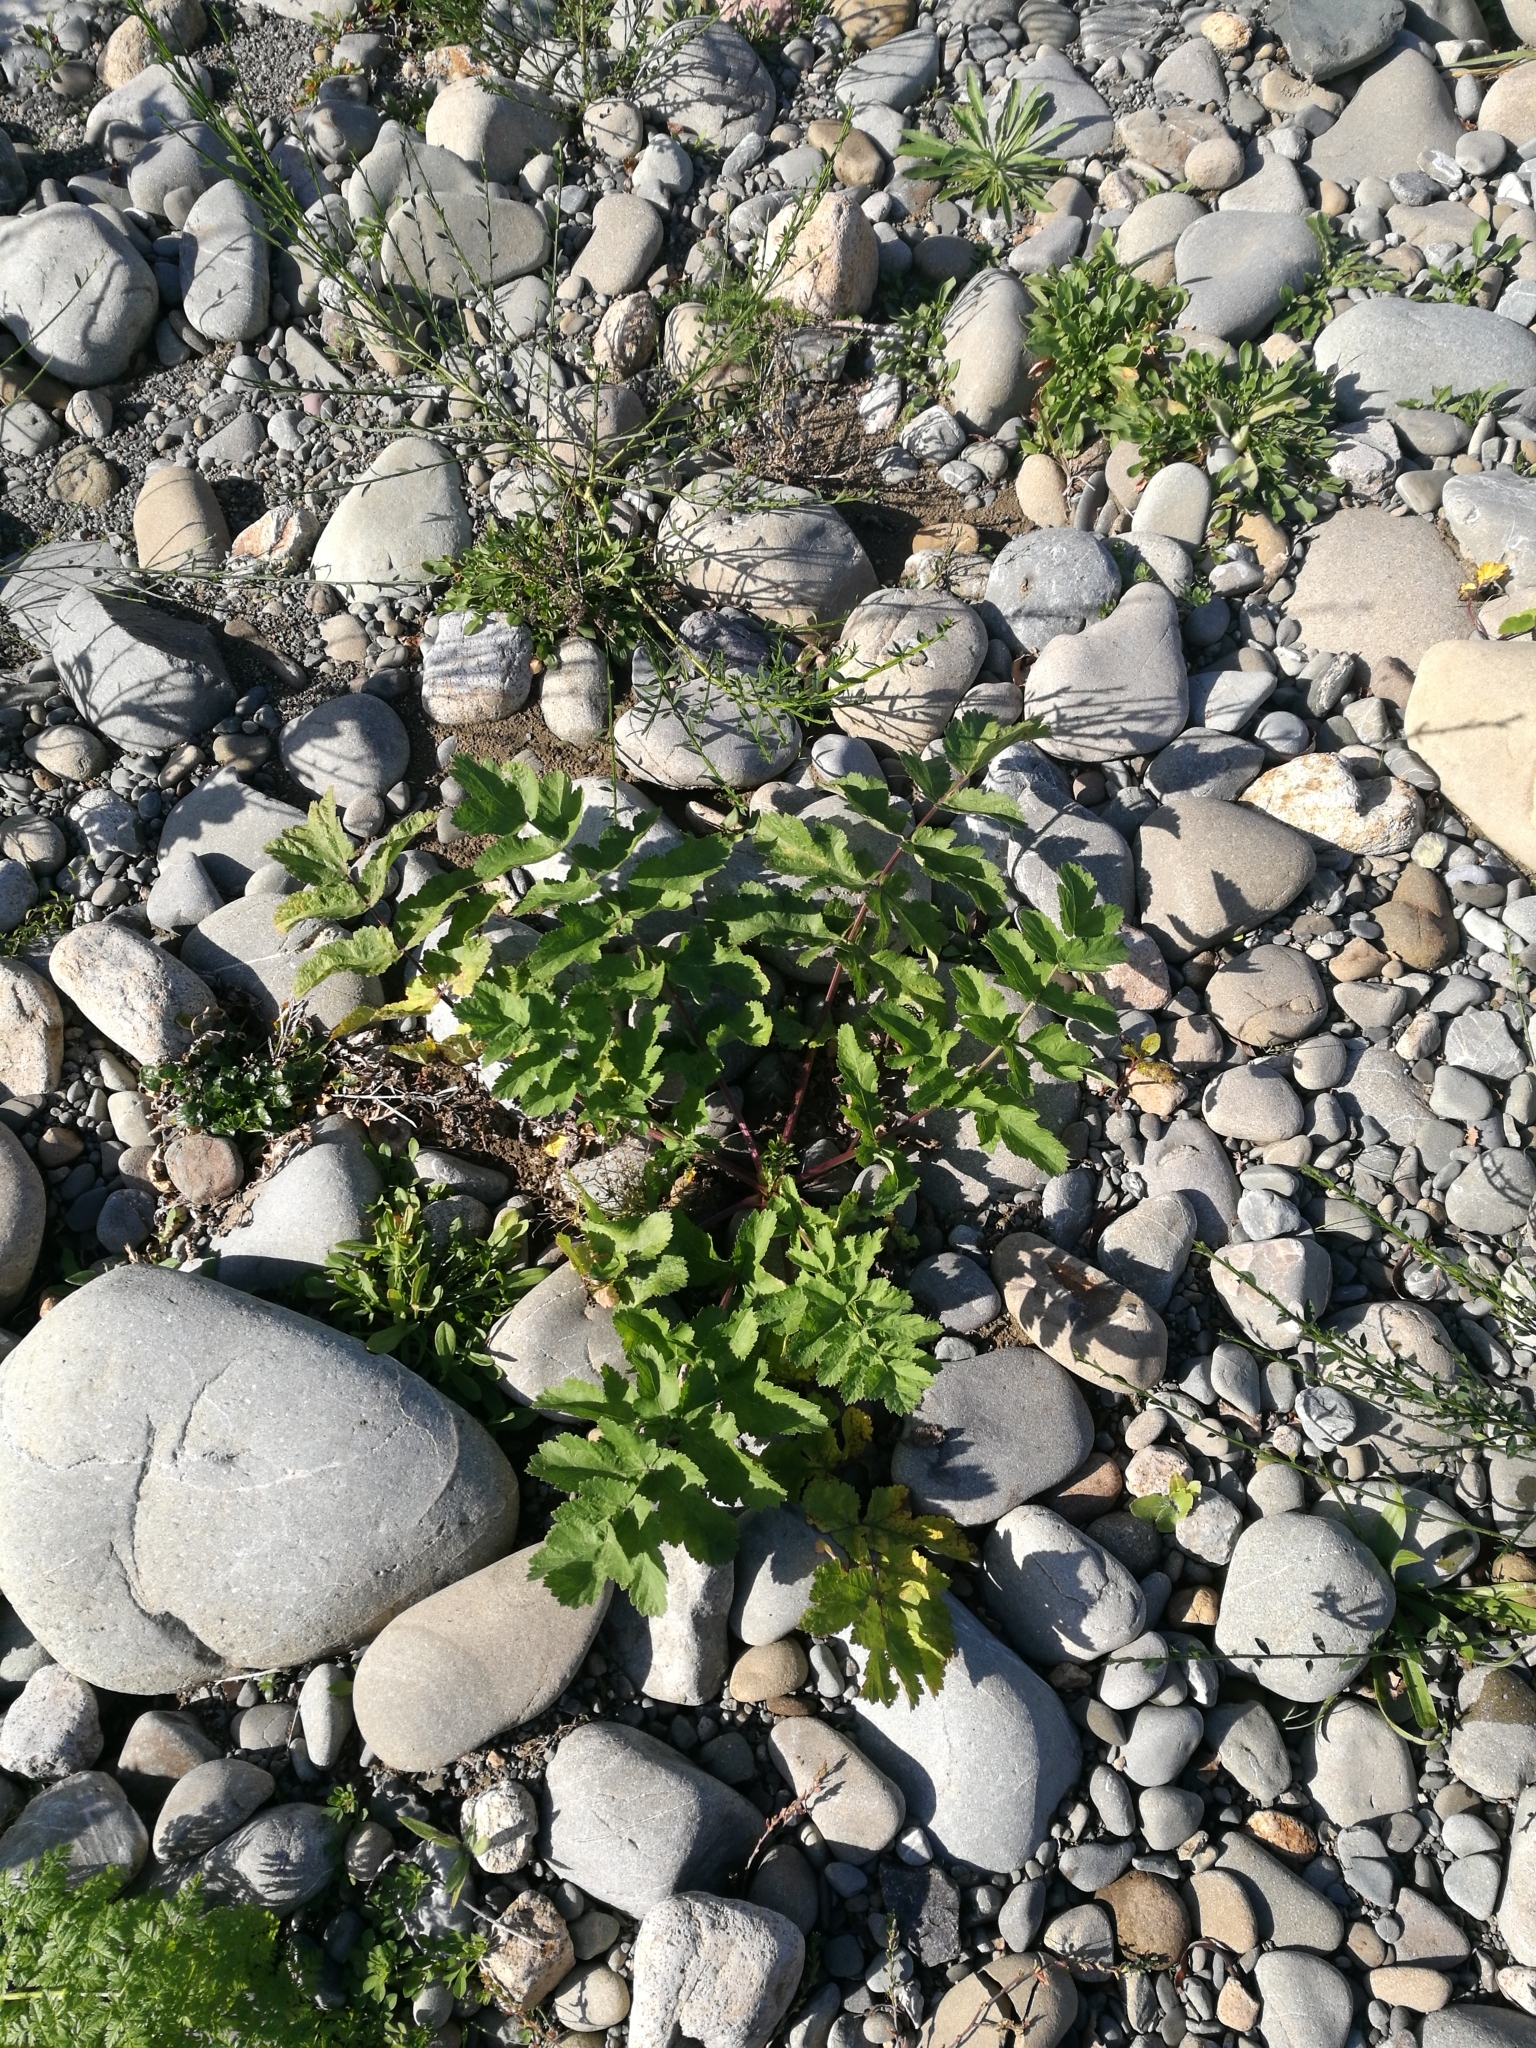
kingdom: Plantae
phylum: Tracheophyta
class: Magnoliopsida
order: Apiales
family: Apiaceae
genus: Pastinaca
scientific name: Pastinaca sativa
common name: Wild parsnip
